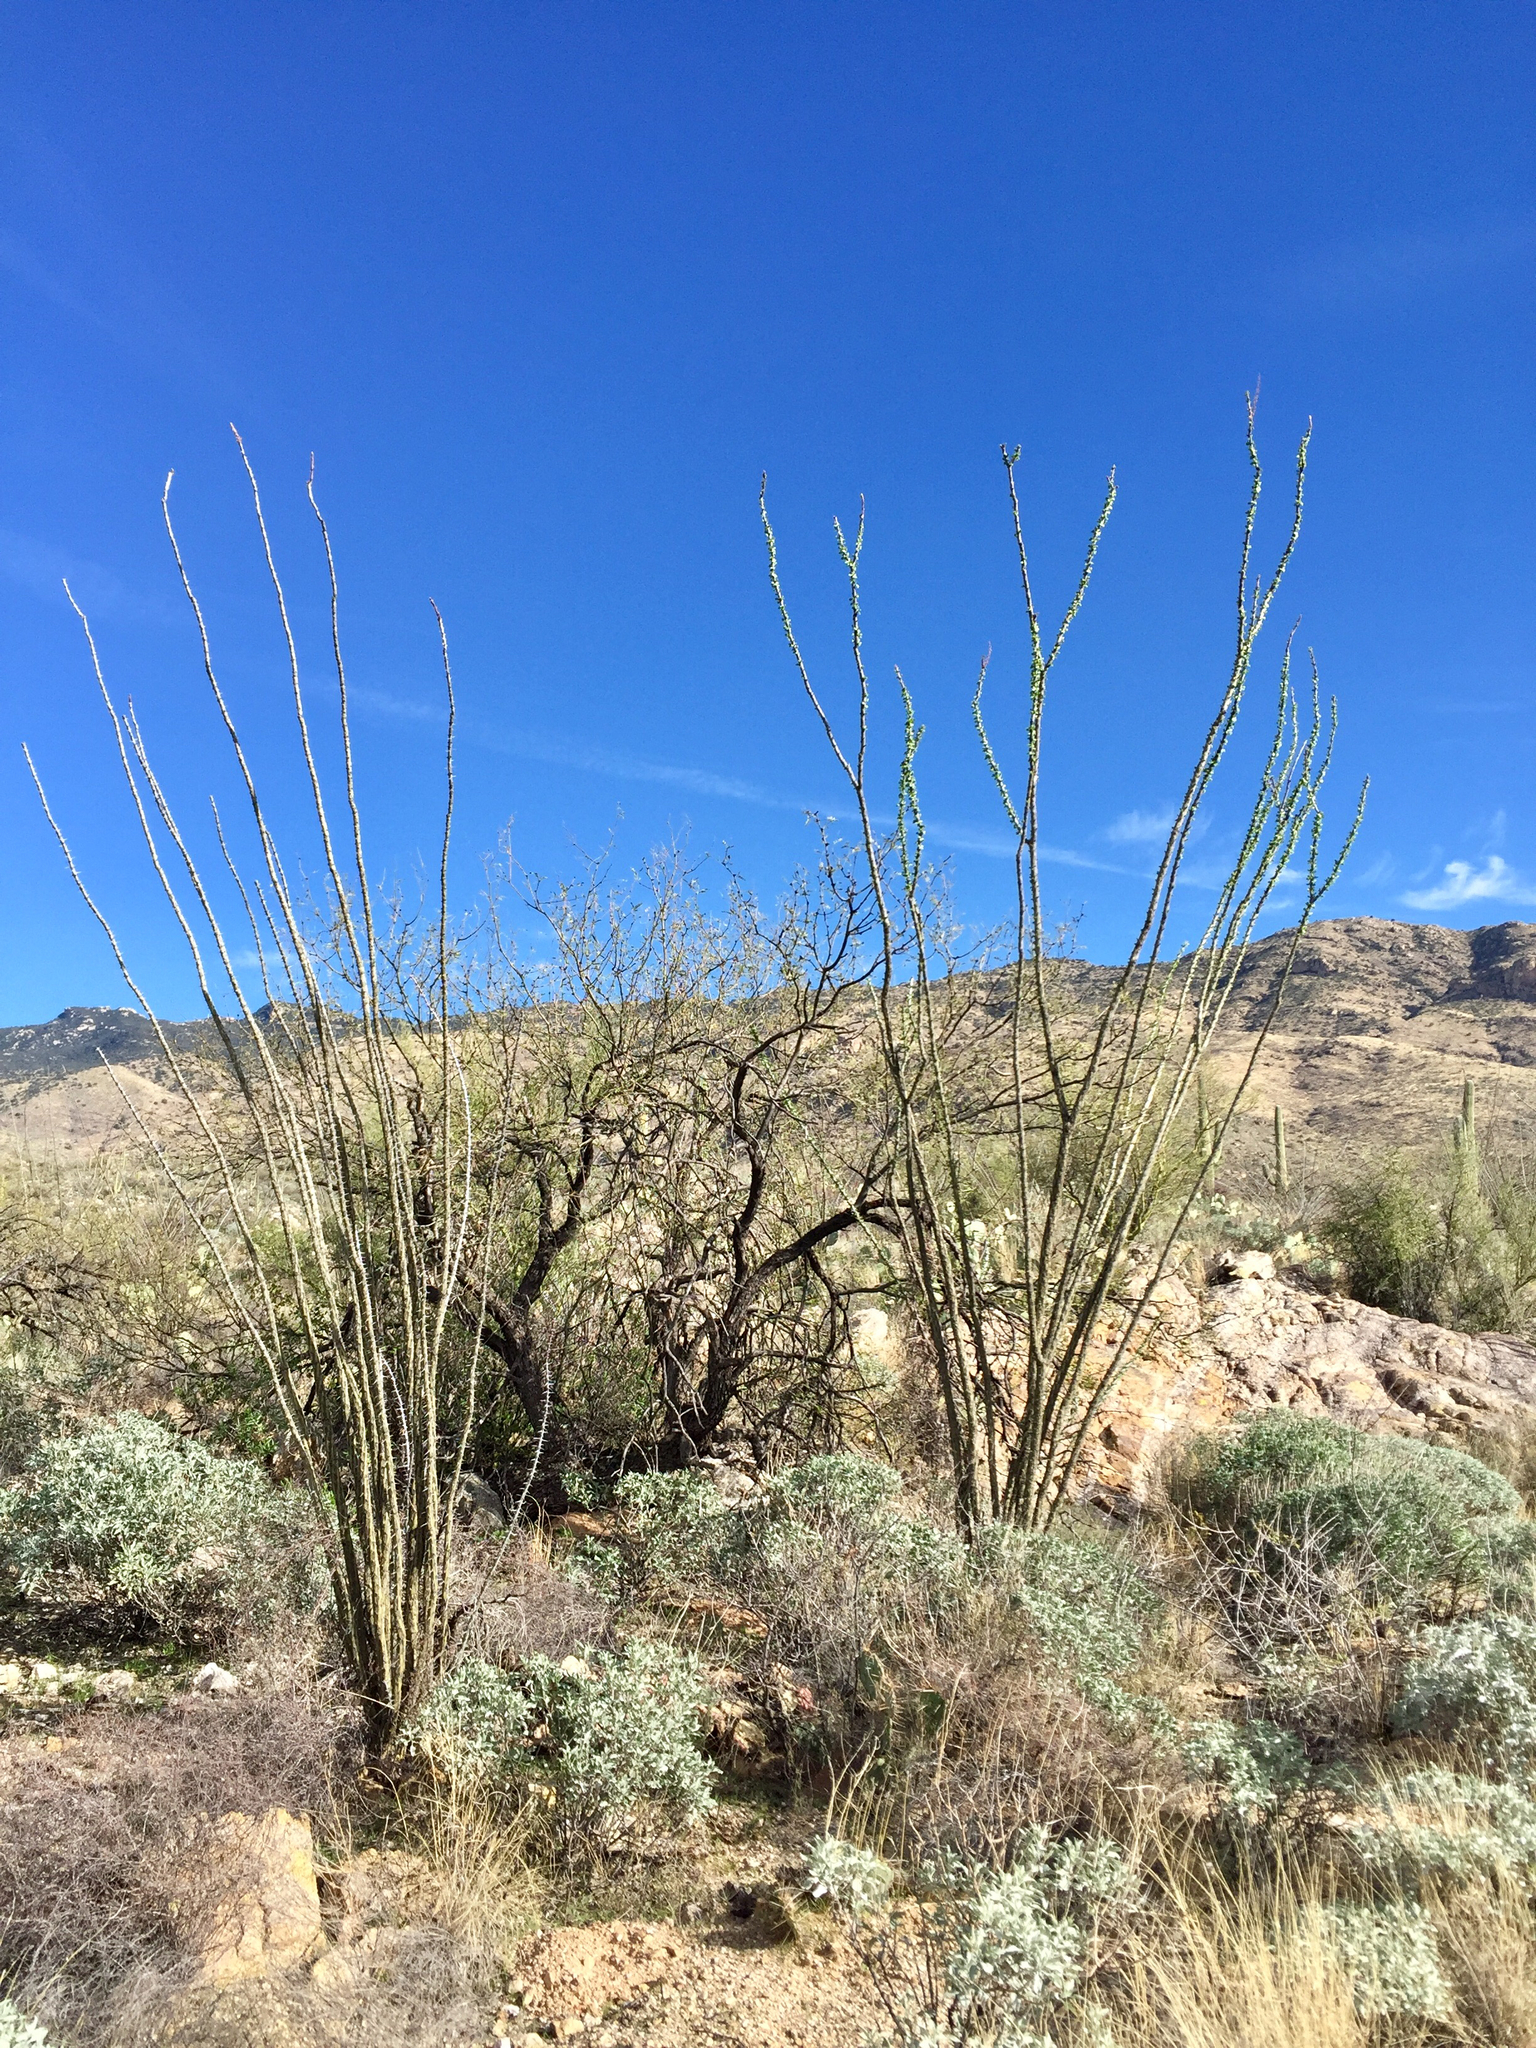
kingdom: Plantae
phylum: Tracheophyta
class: Magnoliopsida
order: Ericales
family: Fouquieriaceae
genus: Fouquieria
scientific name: Fouquieria splendens
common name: Vine-cactus
